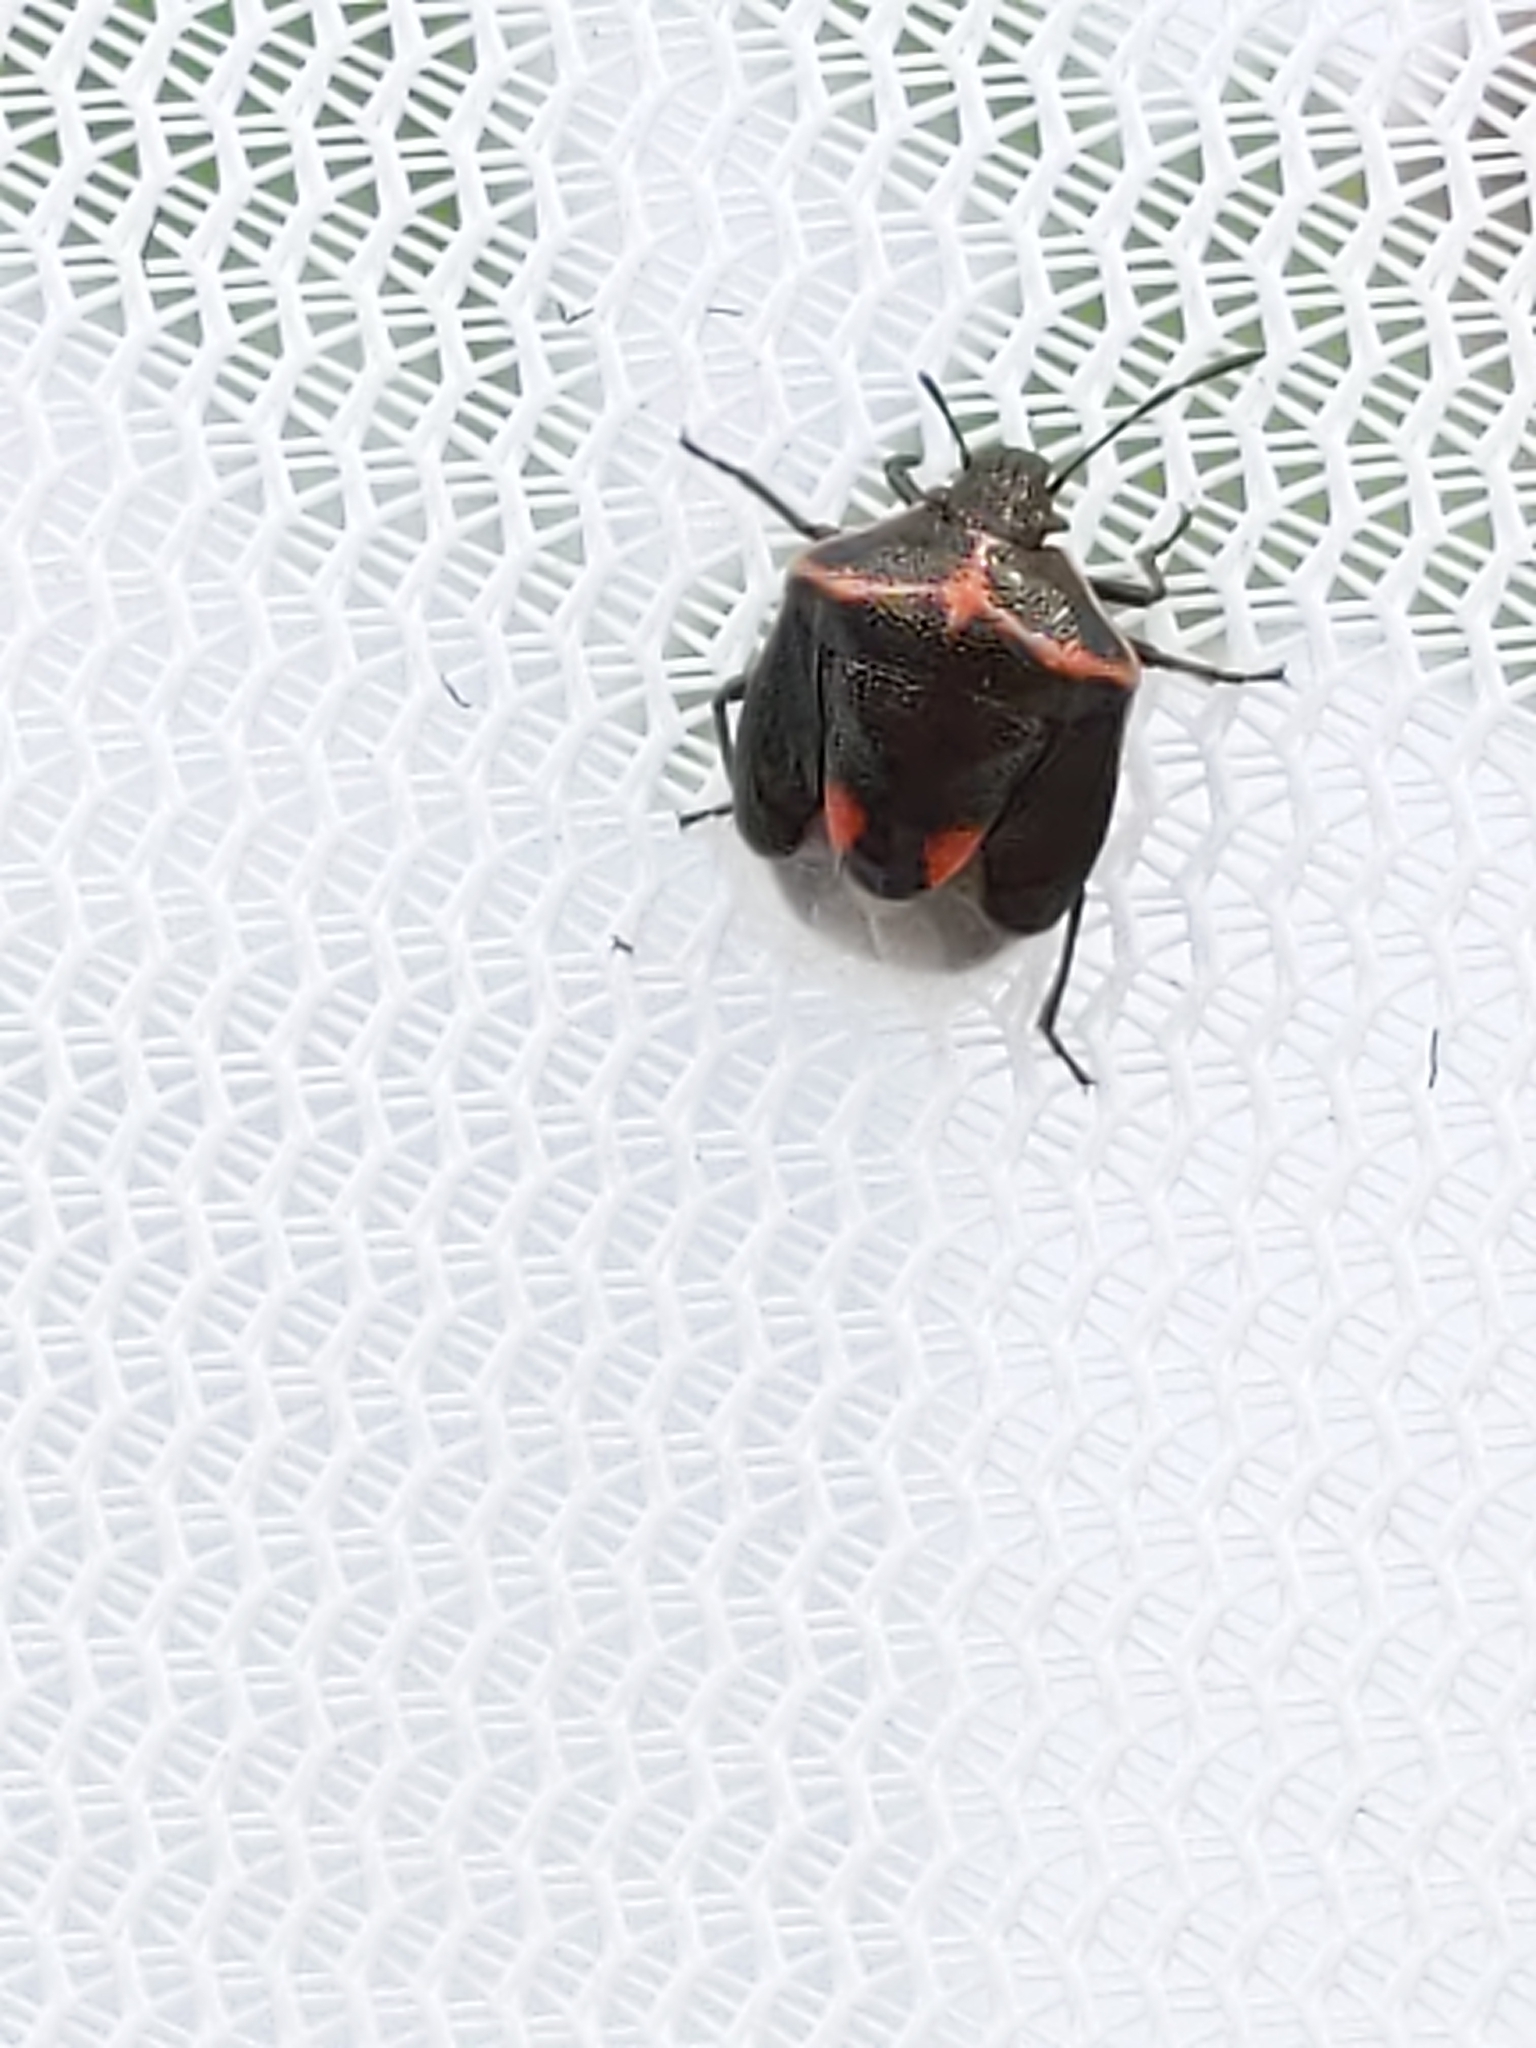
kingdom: Animalia
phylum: Arthropoda
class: Insecta
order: Hemiptera
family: Pentatomidae
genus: Cosmopepla
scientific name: Cosmopepla lintneriana
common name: Twice-stabbed stink bug
